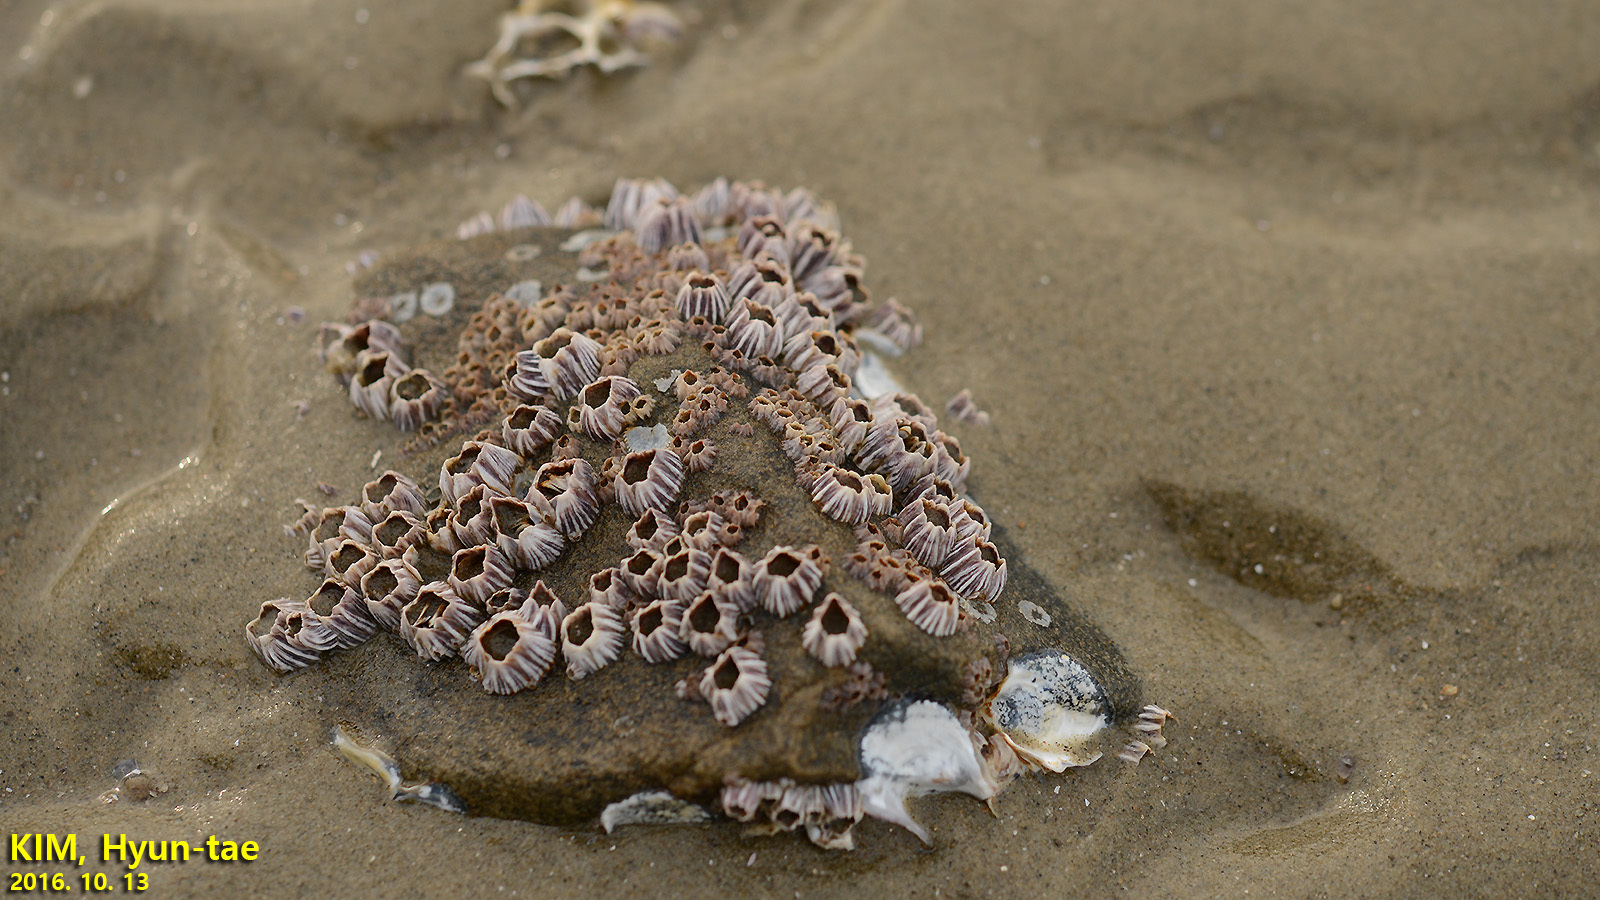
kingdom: Animalia
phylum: Arthropoda
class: Maxillopoda
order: Sessilia
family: Balanidae
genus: Fistulobalanus
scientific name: Fistulobalanus albicostatus
